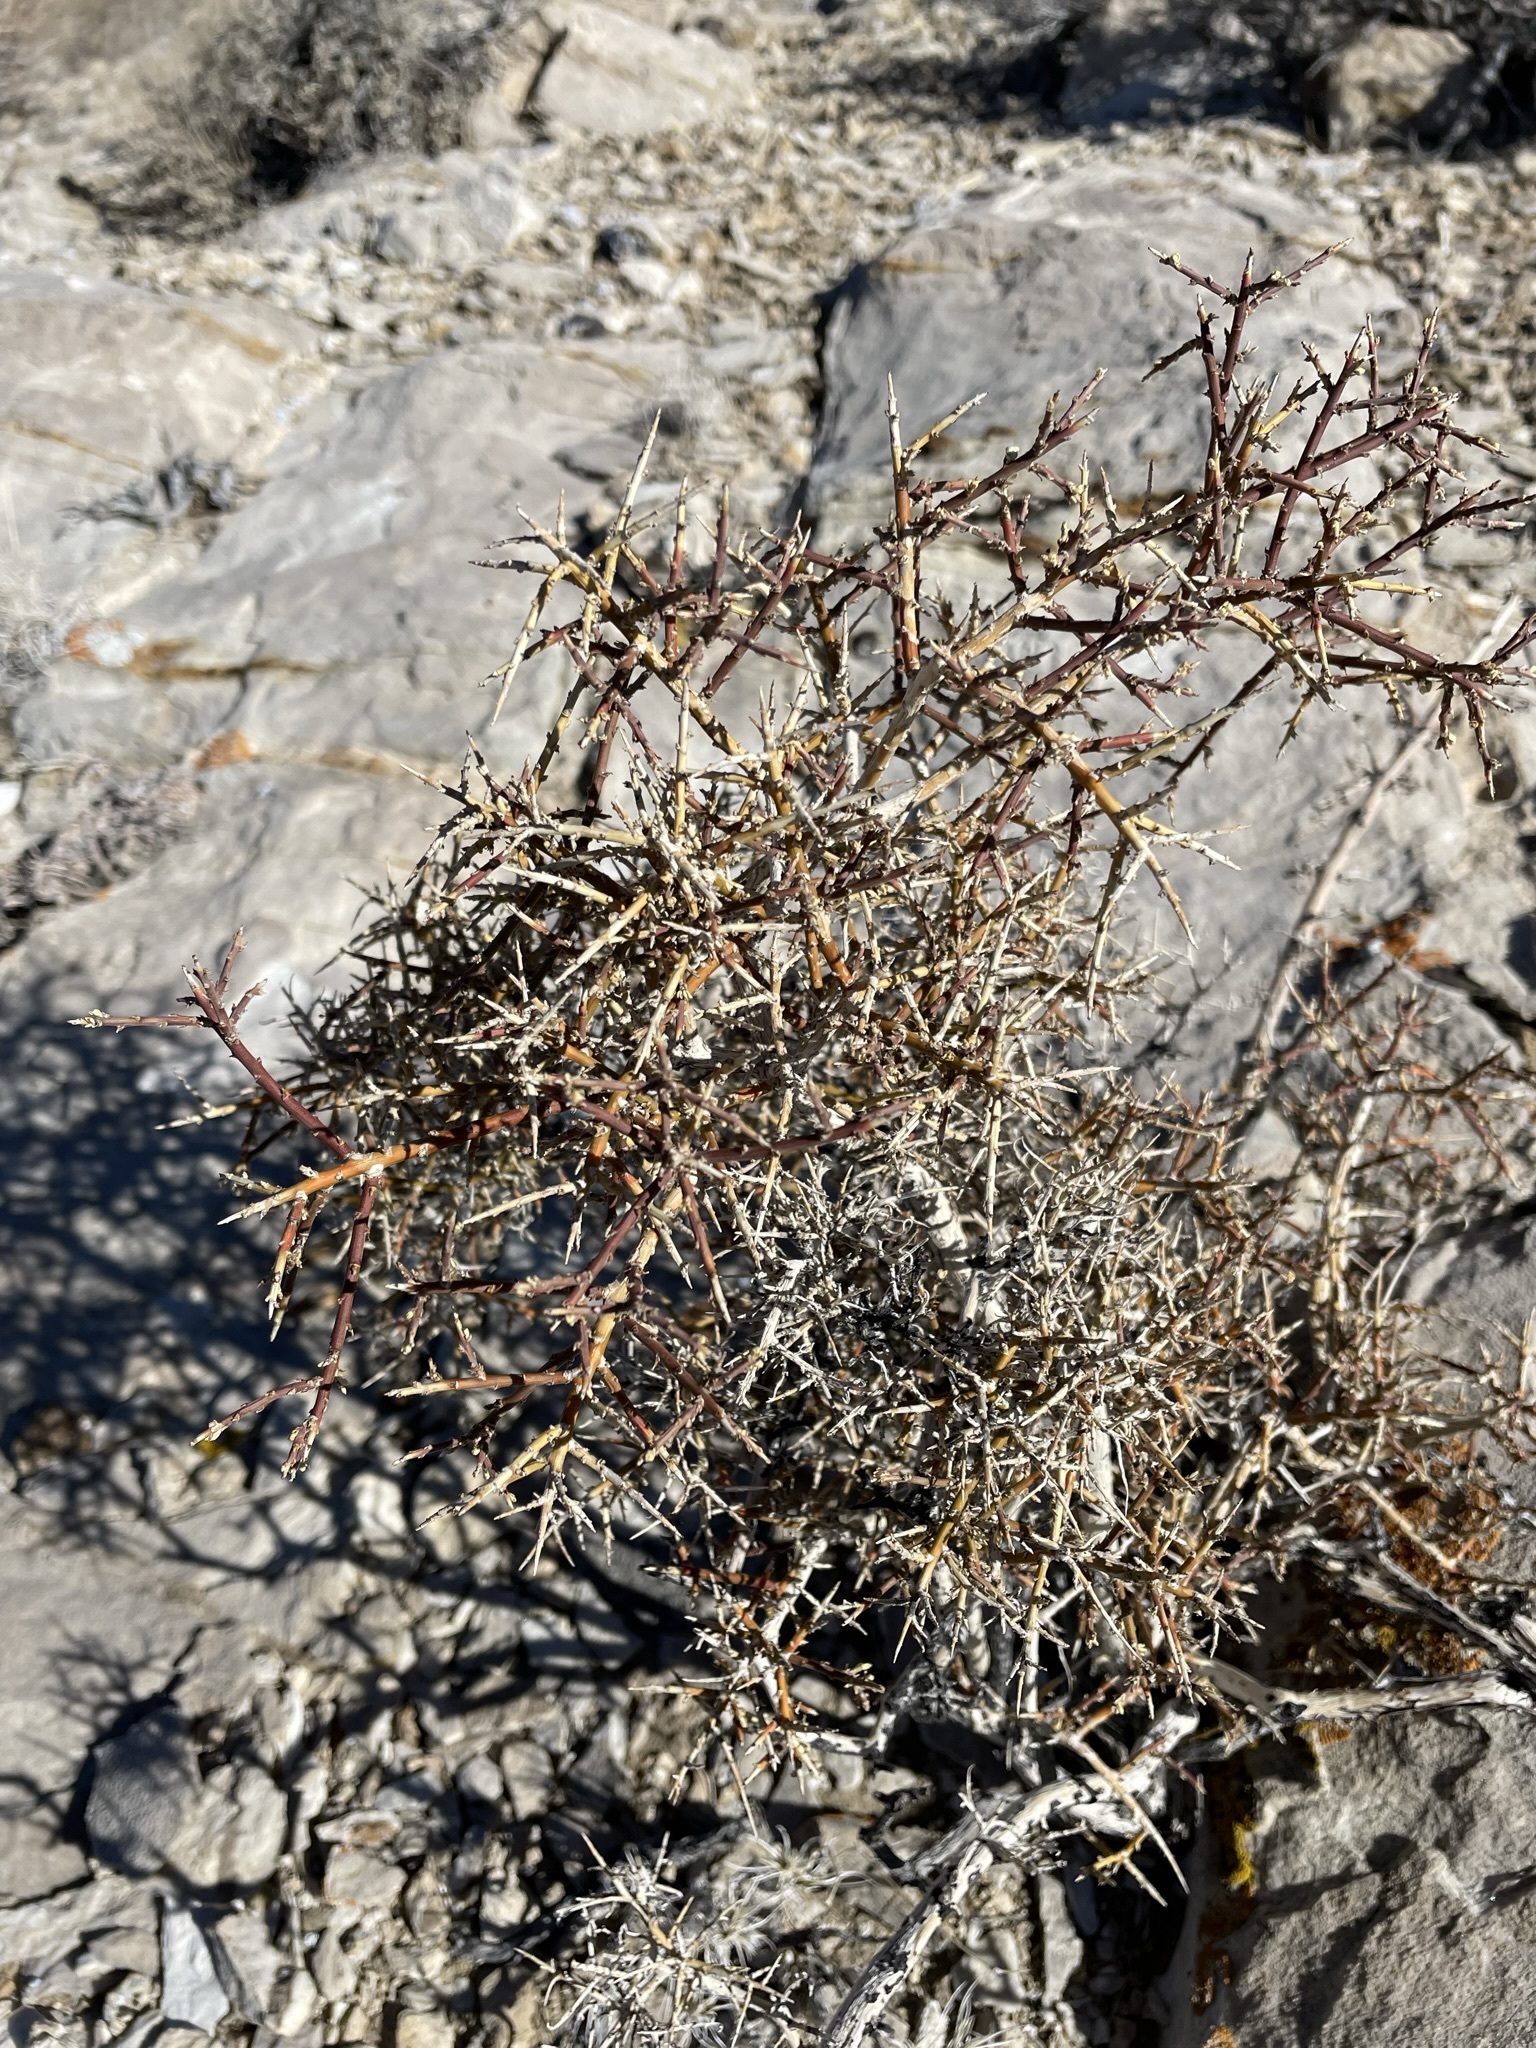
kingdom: Plantae
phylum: Tracheophyta
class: Magnoliopsida
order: Crossosomatales
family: Crossosomataceae
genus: Glossopetalon
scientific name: Glossopetalon spinescens
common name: Spring greasebush
